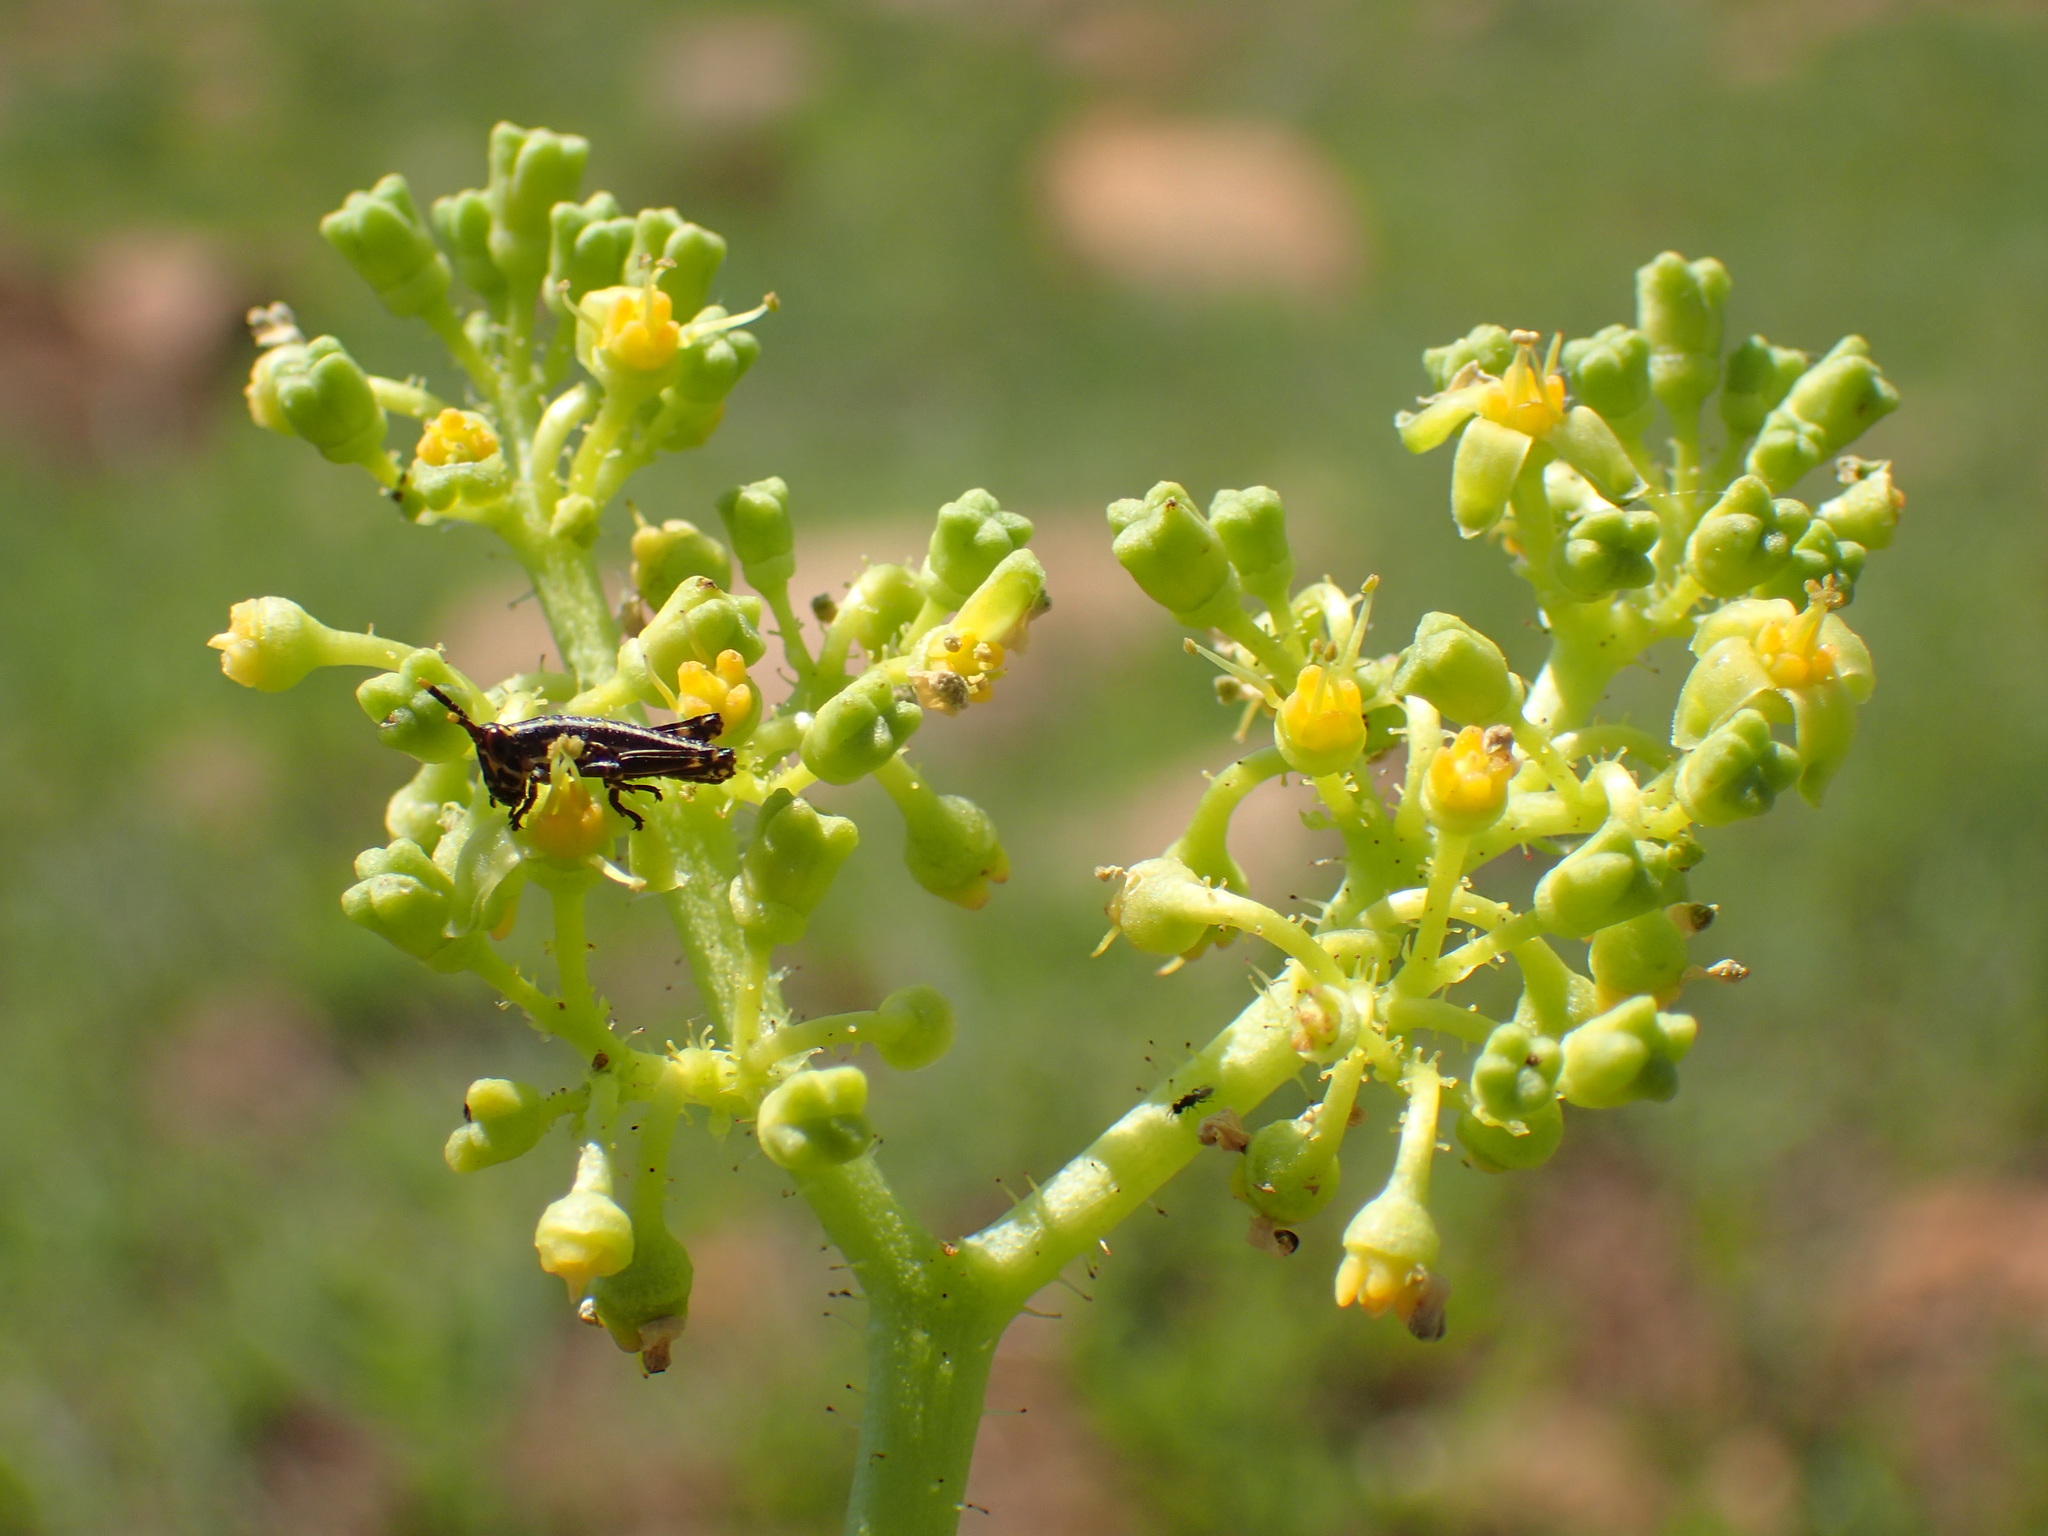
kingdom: Plantae
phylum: Tracheophyta
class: Magnoliopsida
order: Vitales
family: Vitaceae
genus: Cyphostemma
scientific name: Cyphostemma schlechteri
